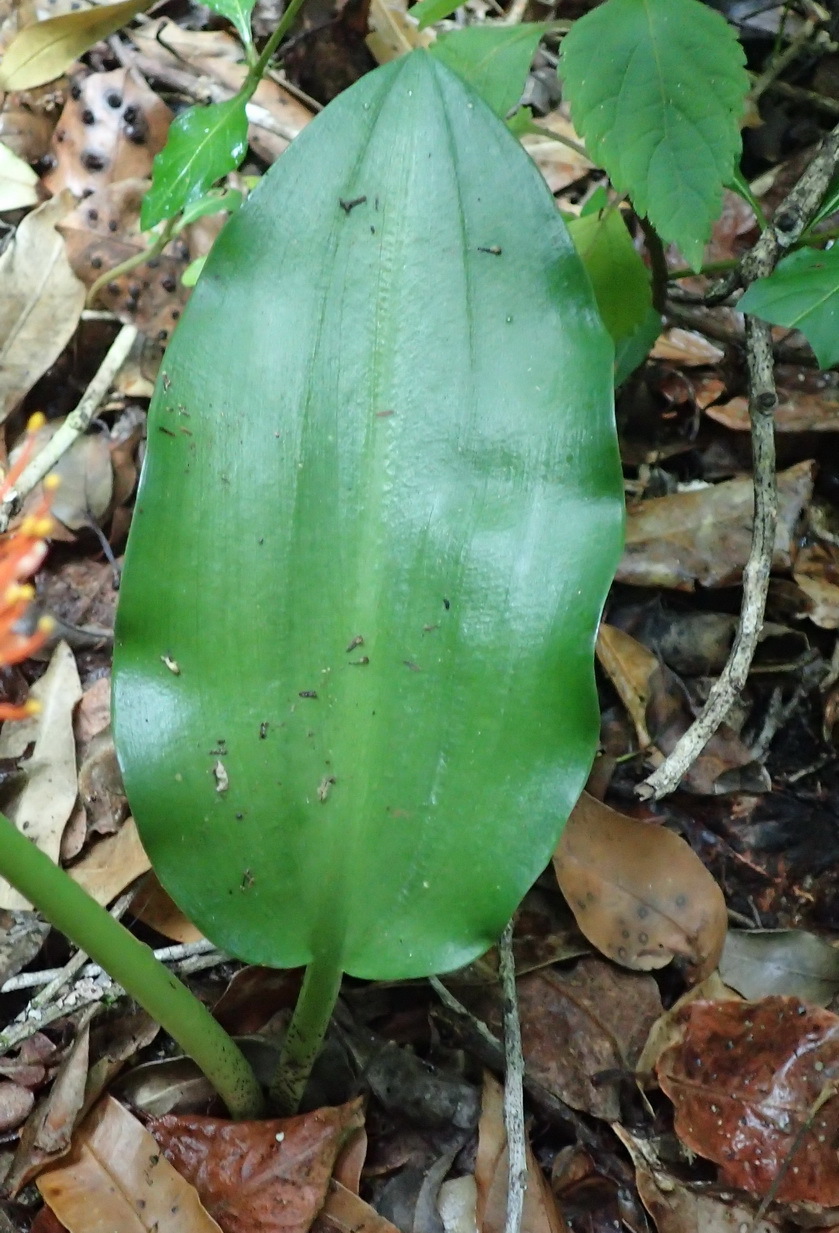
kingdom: Plantae
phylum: Tracheophyta
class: Liliopsida
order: Asparagales
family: Amaryllidaceae
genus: Scadoxus
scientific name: Scadoxus puniceus
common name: Royal-paintbrush
